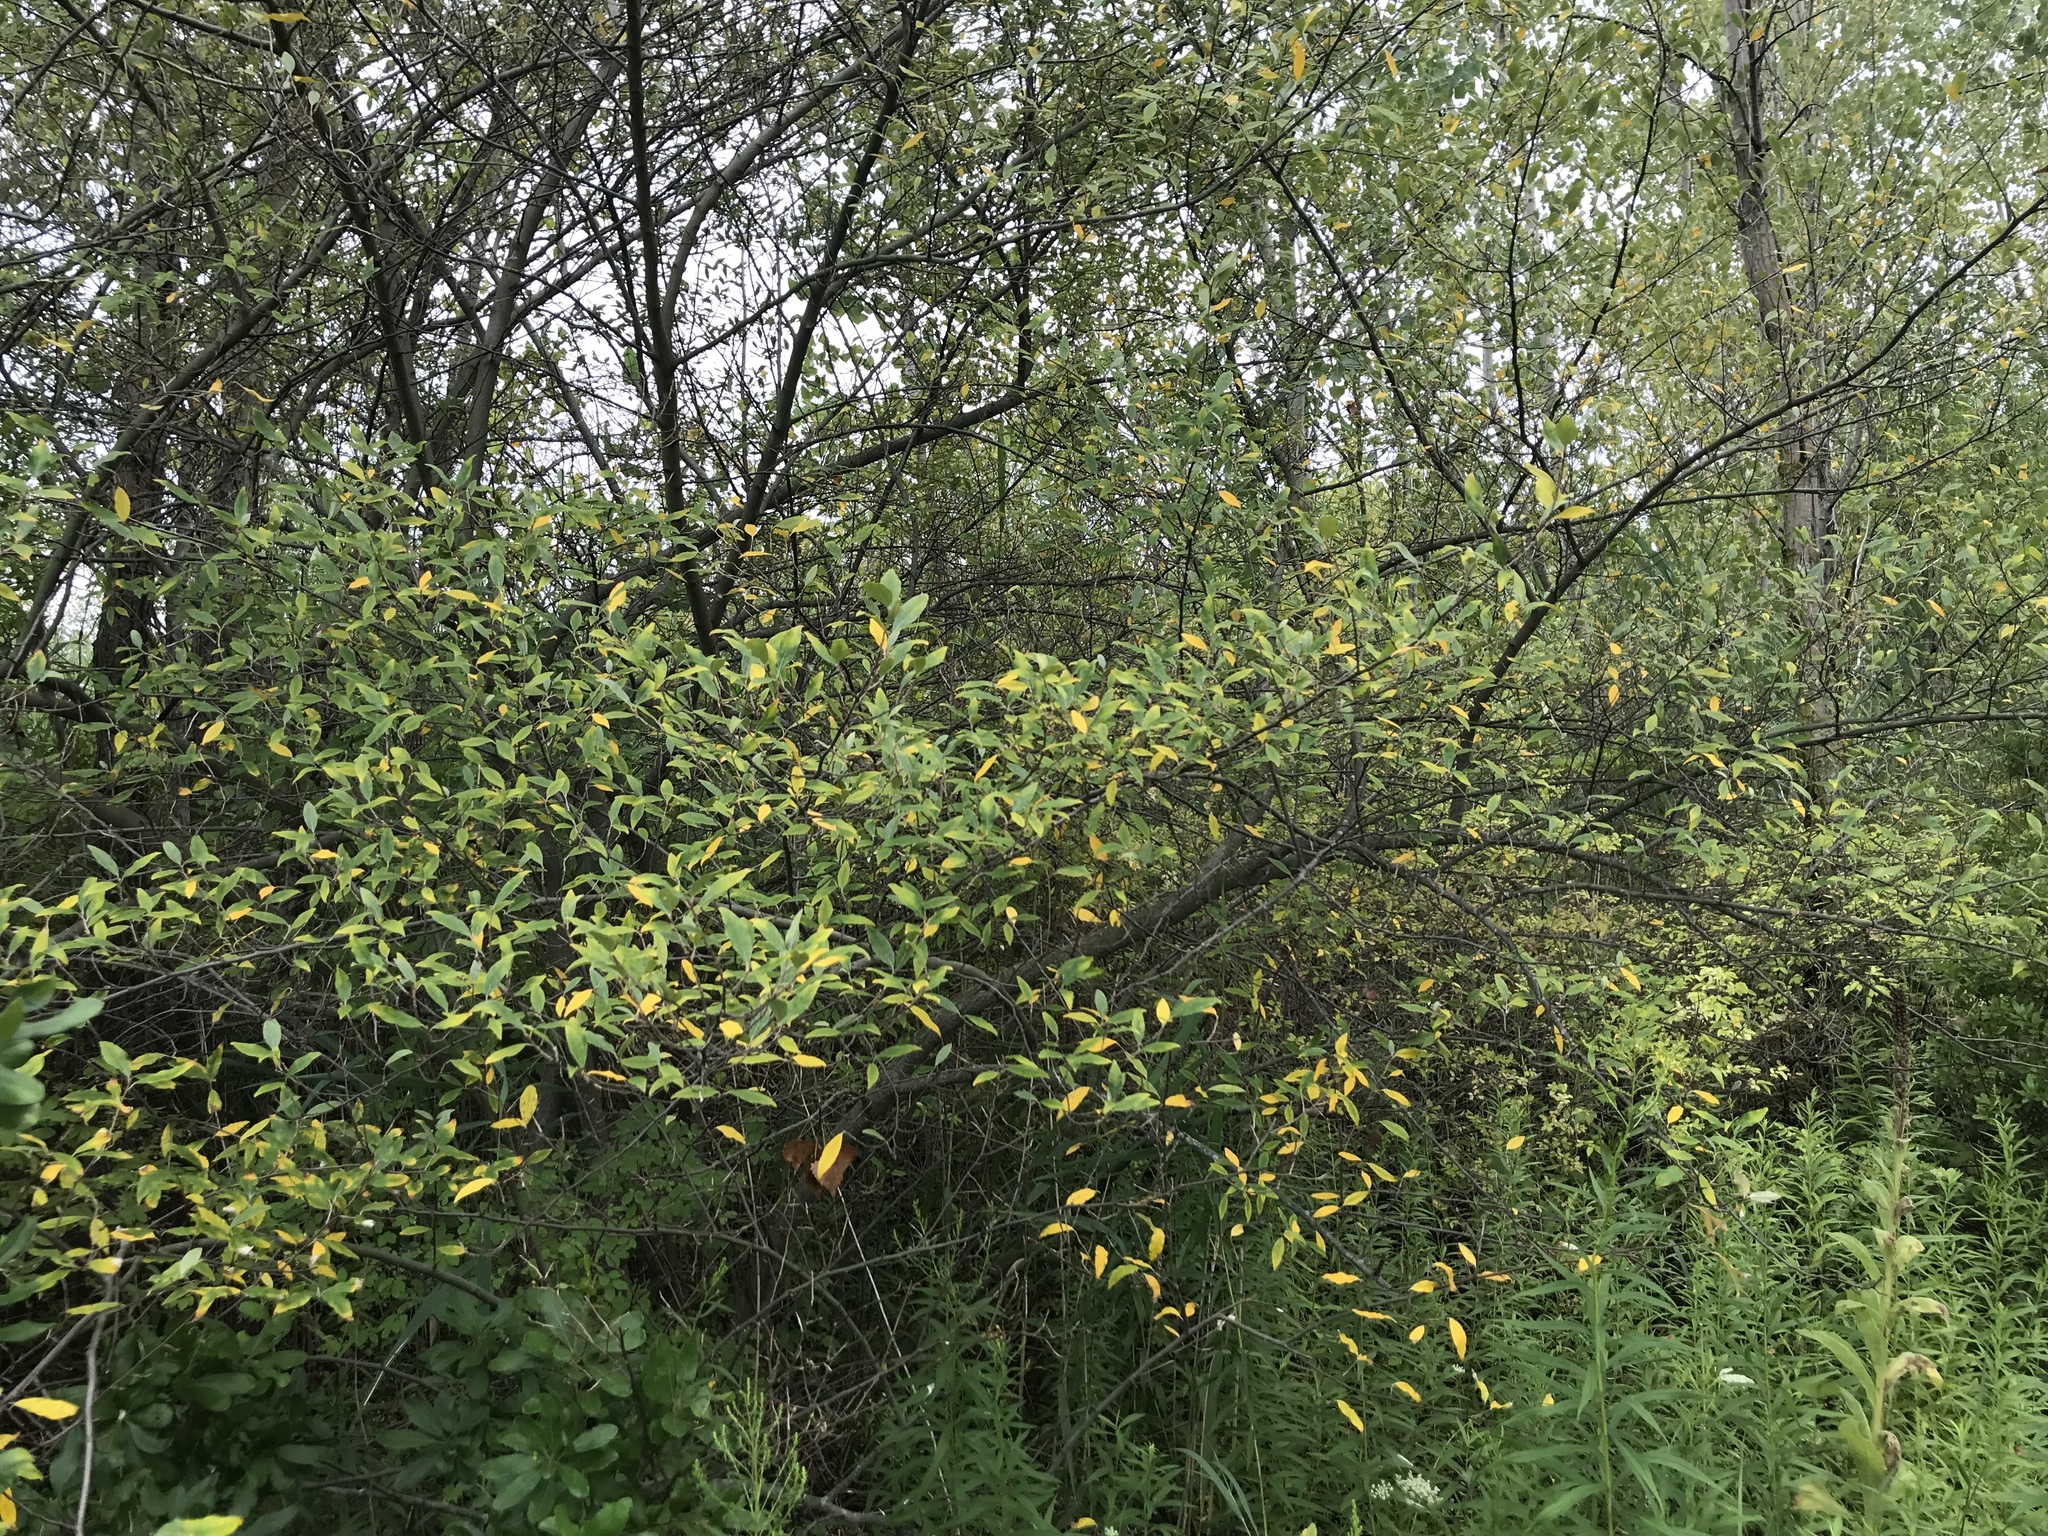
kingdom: Plantae
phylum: Tracheophyta
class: Magnoliopsida
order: Rosales
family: Elaeagnaceae
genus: Elaeagnus
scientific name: Elaeagnus umbellata
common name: Autumn olive
